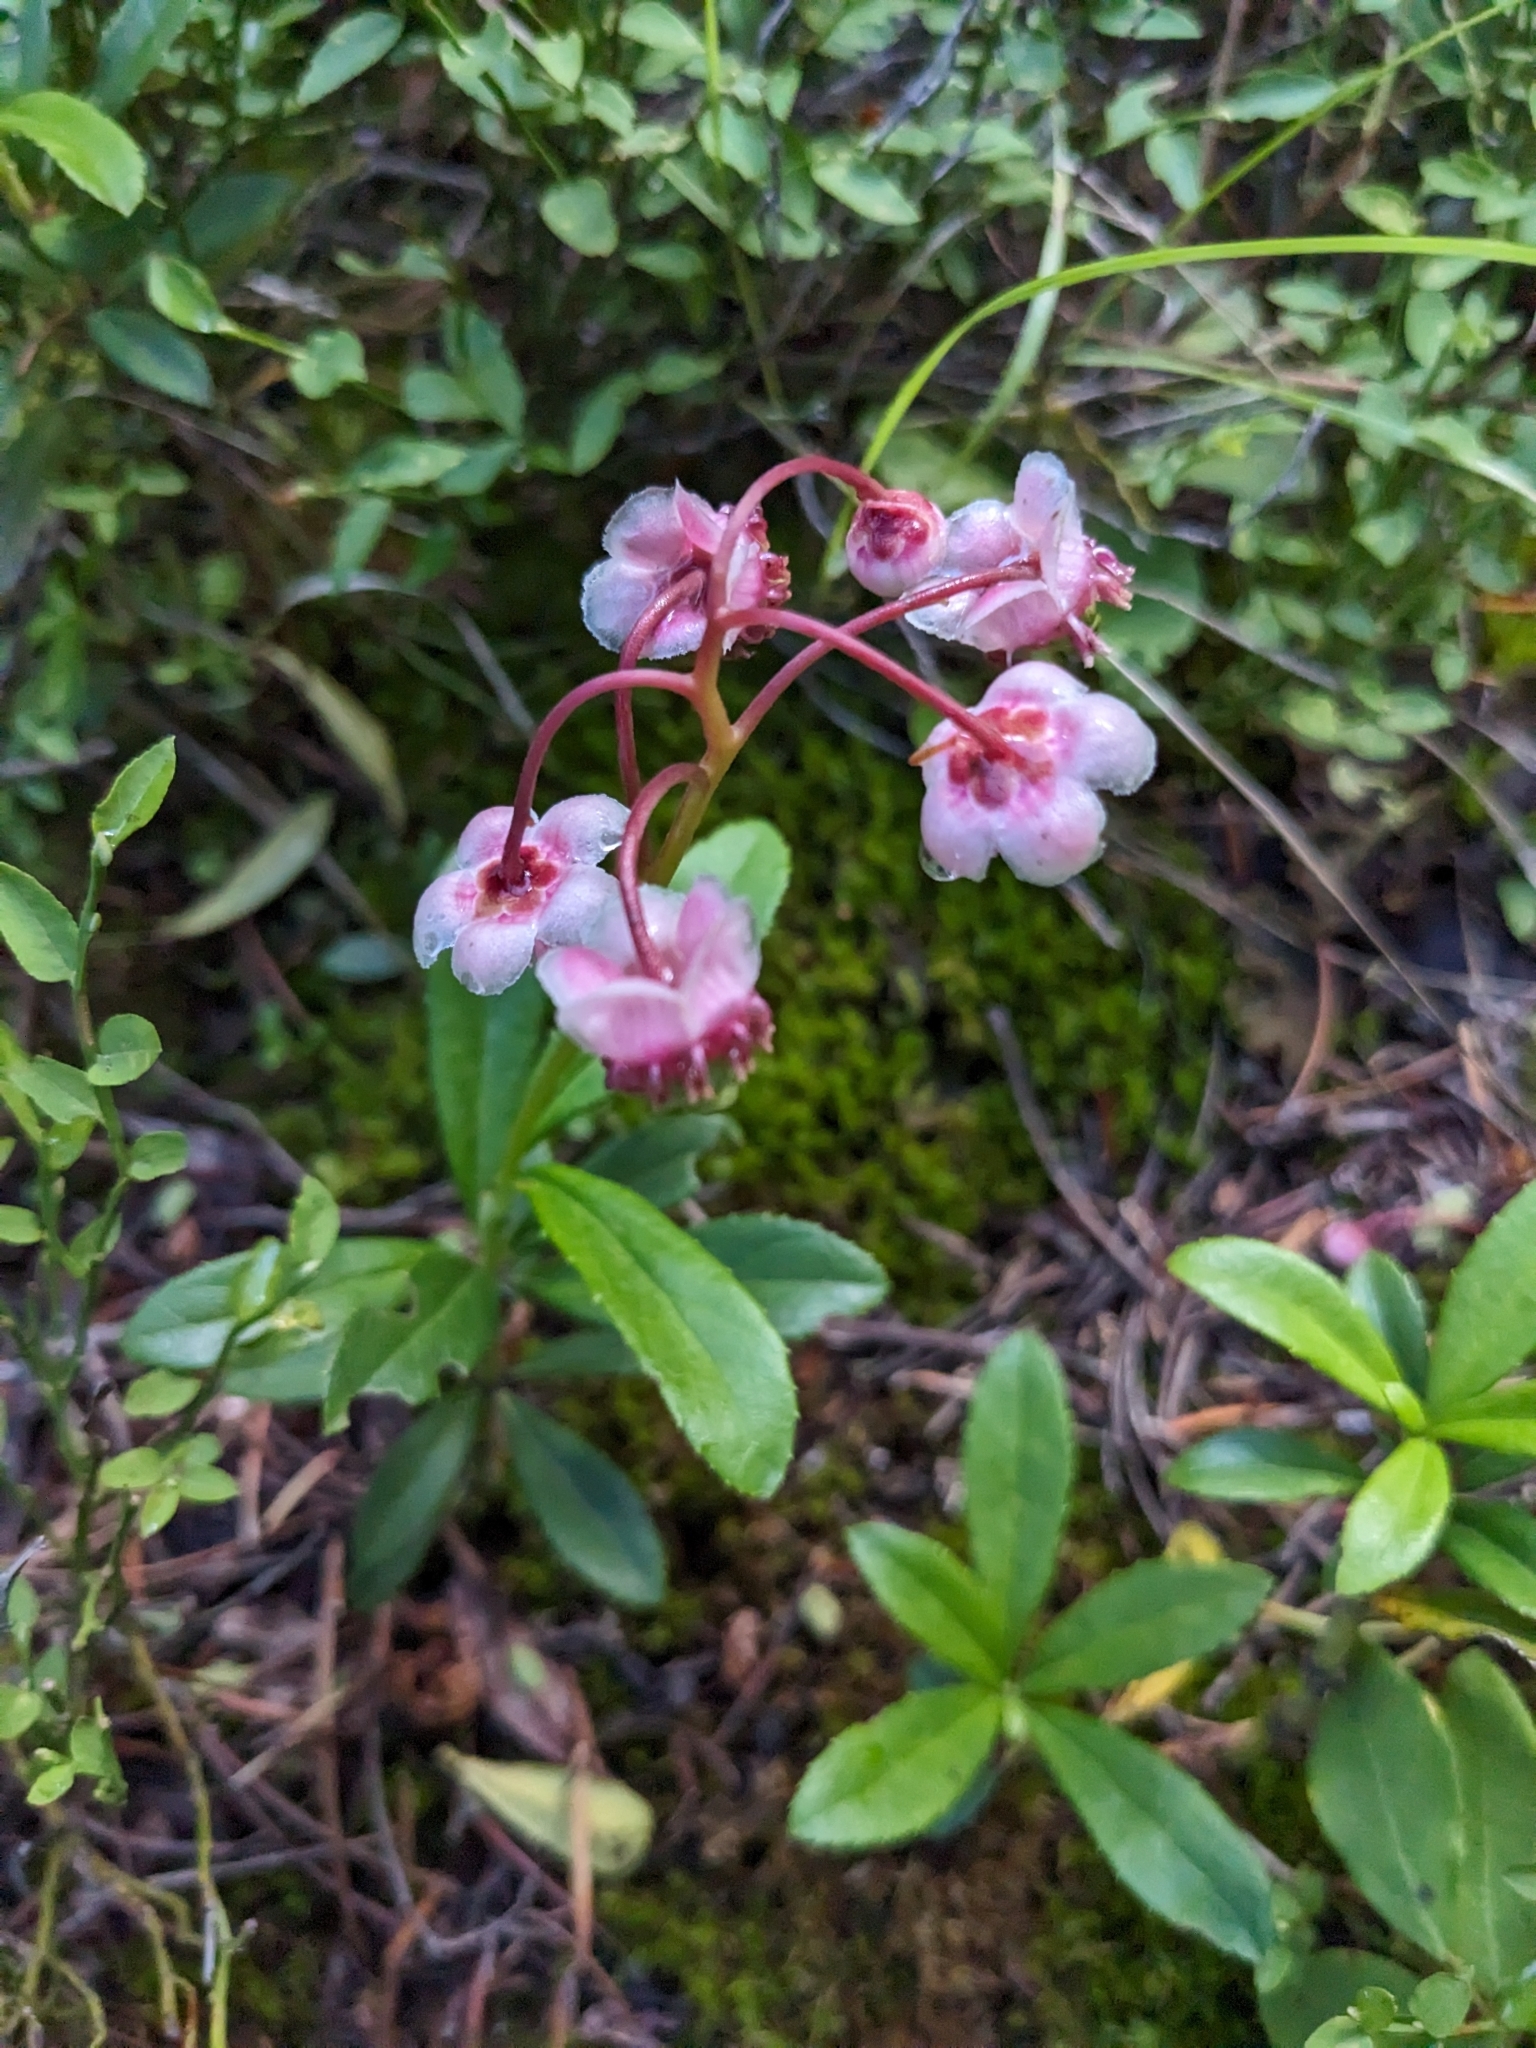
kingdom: Plantae
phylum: Tracheophyta
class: Magnoliopsida
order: Ericales
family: Ericaceae
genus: Chimaphila
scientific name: Chimaphila umbellata
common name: Pipsissewa
